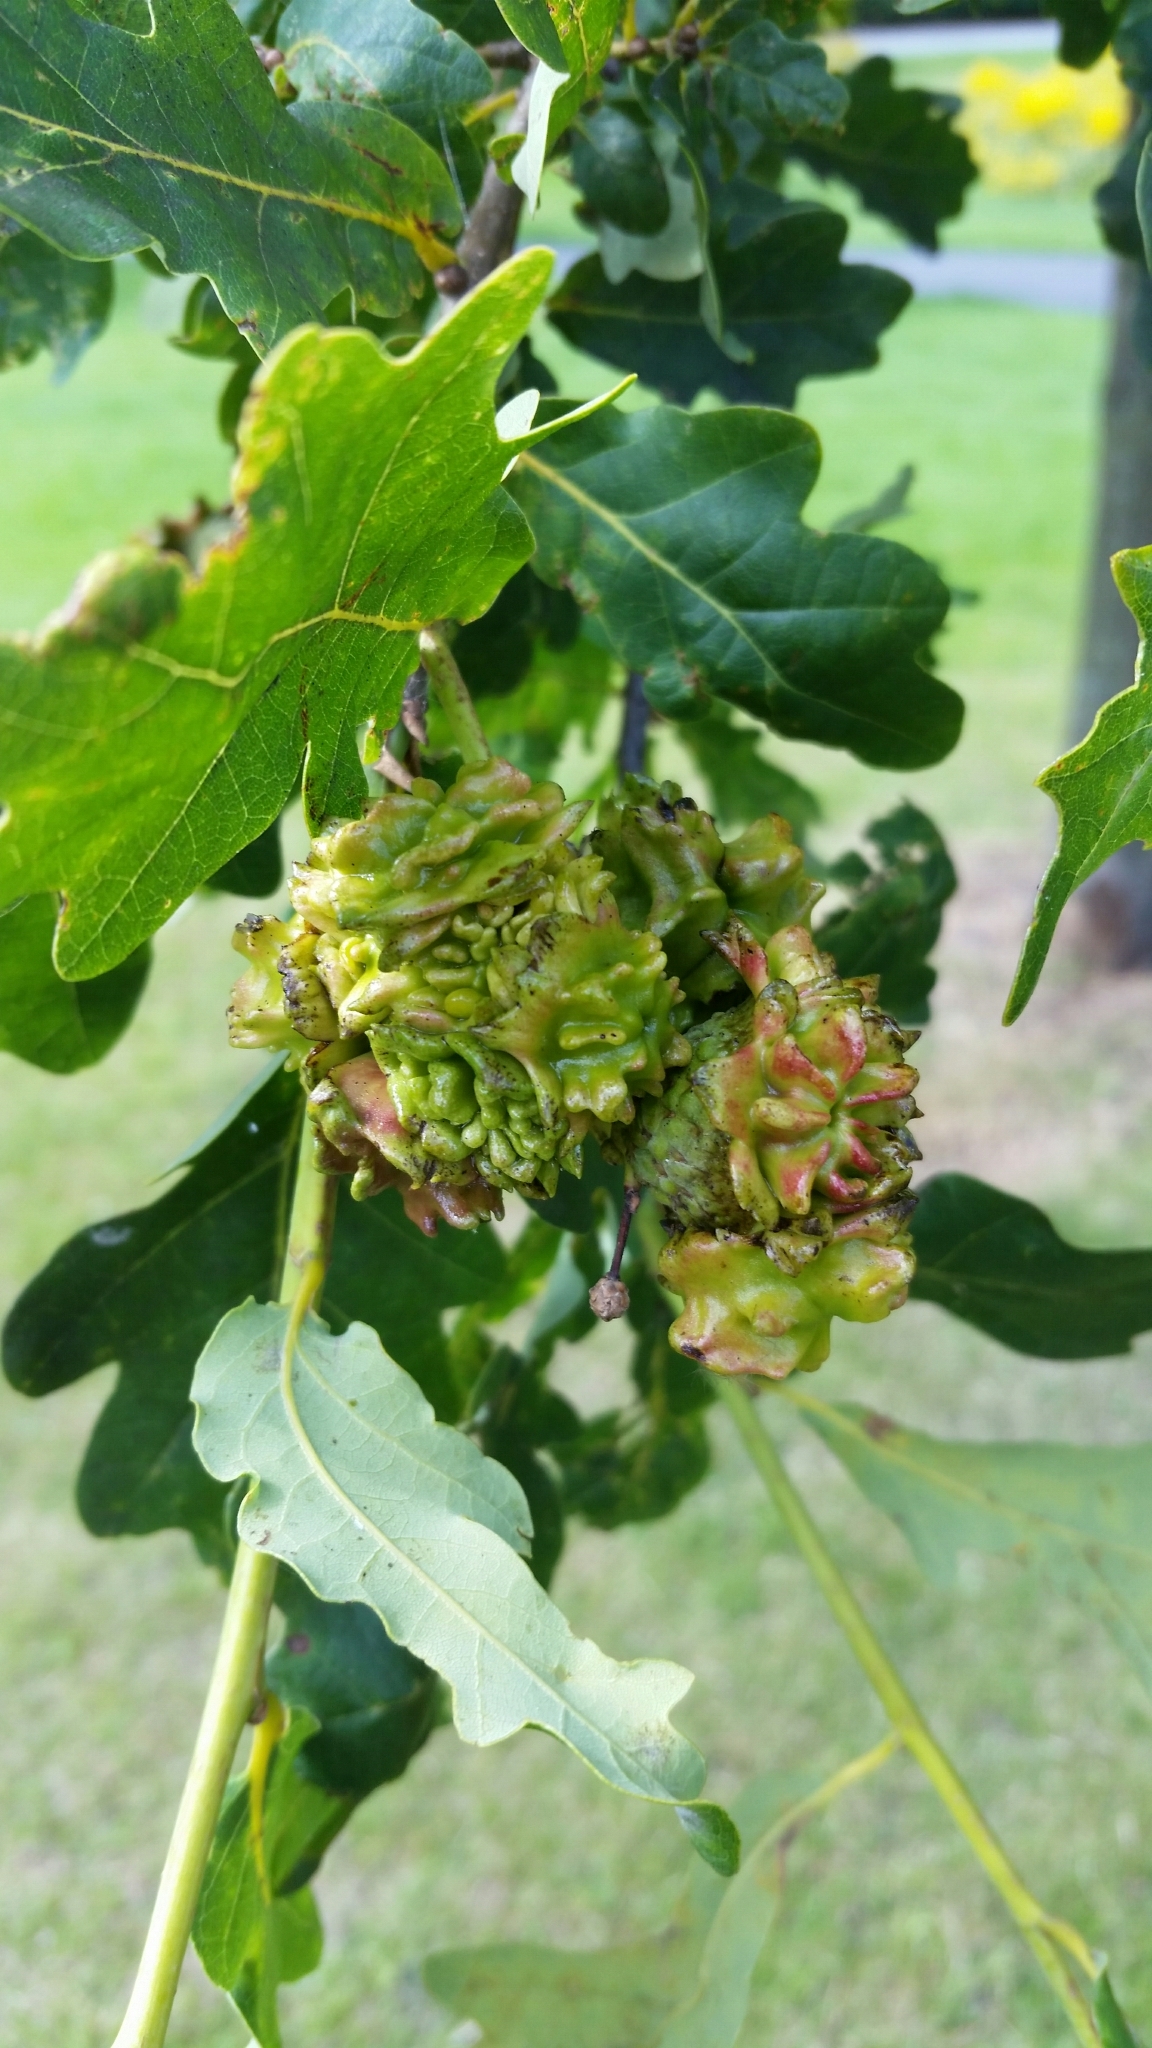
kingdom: Animalia
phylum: Arthropoda
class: Insecta
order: Hymenoptera
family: Cynipidae
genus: Andricus
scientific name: Andricus quercuscalicis
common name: Knopper gall
